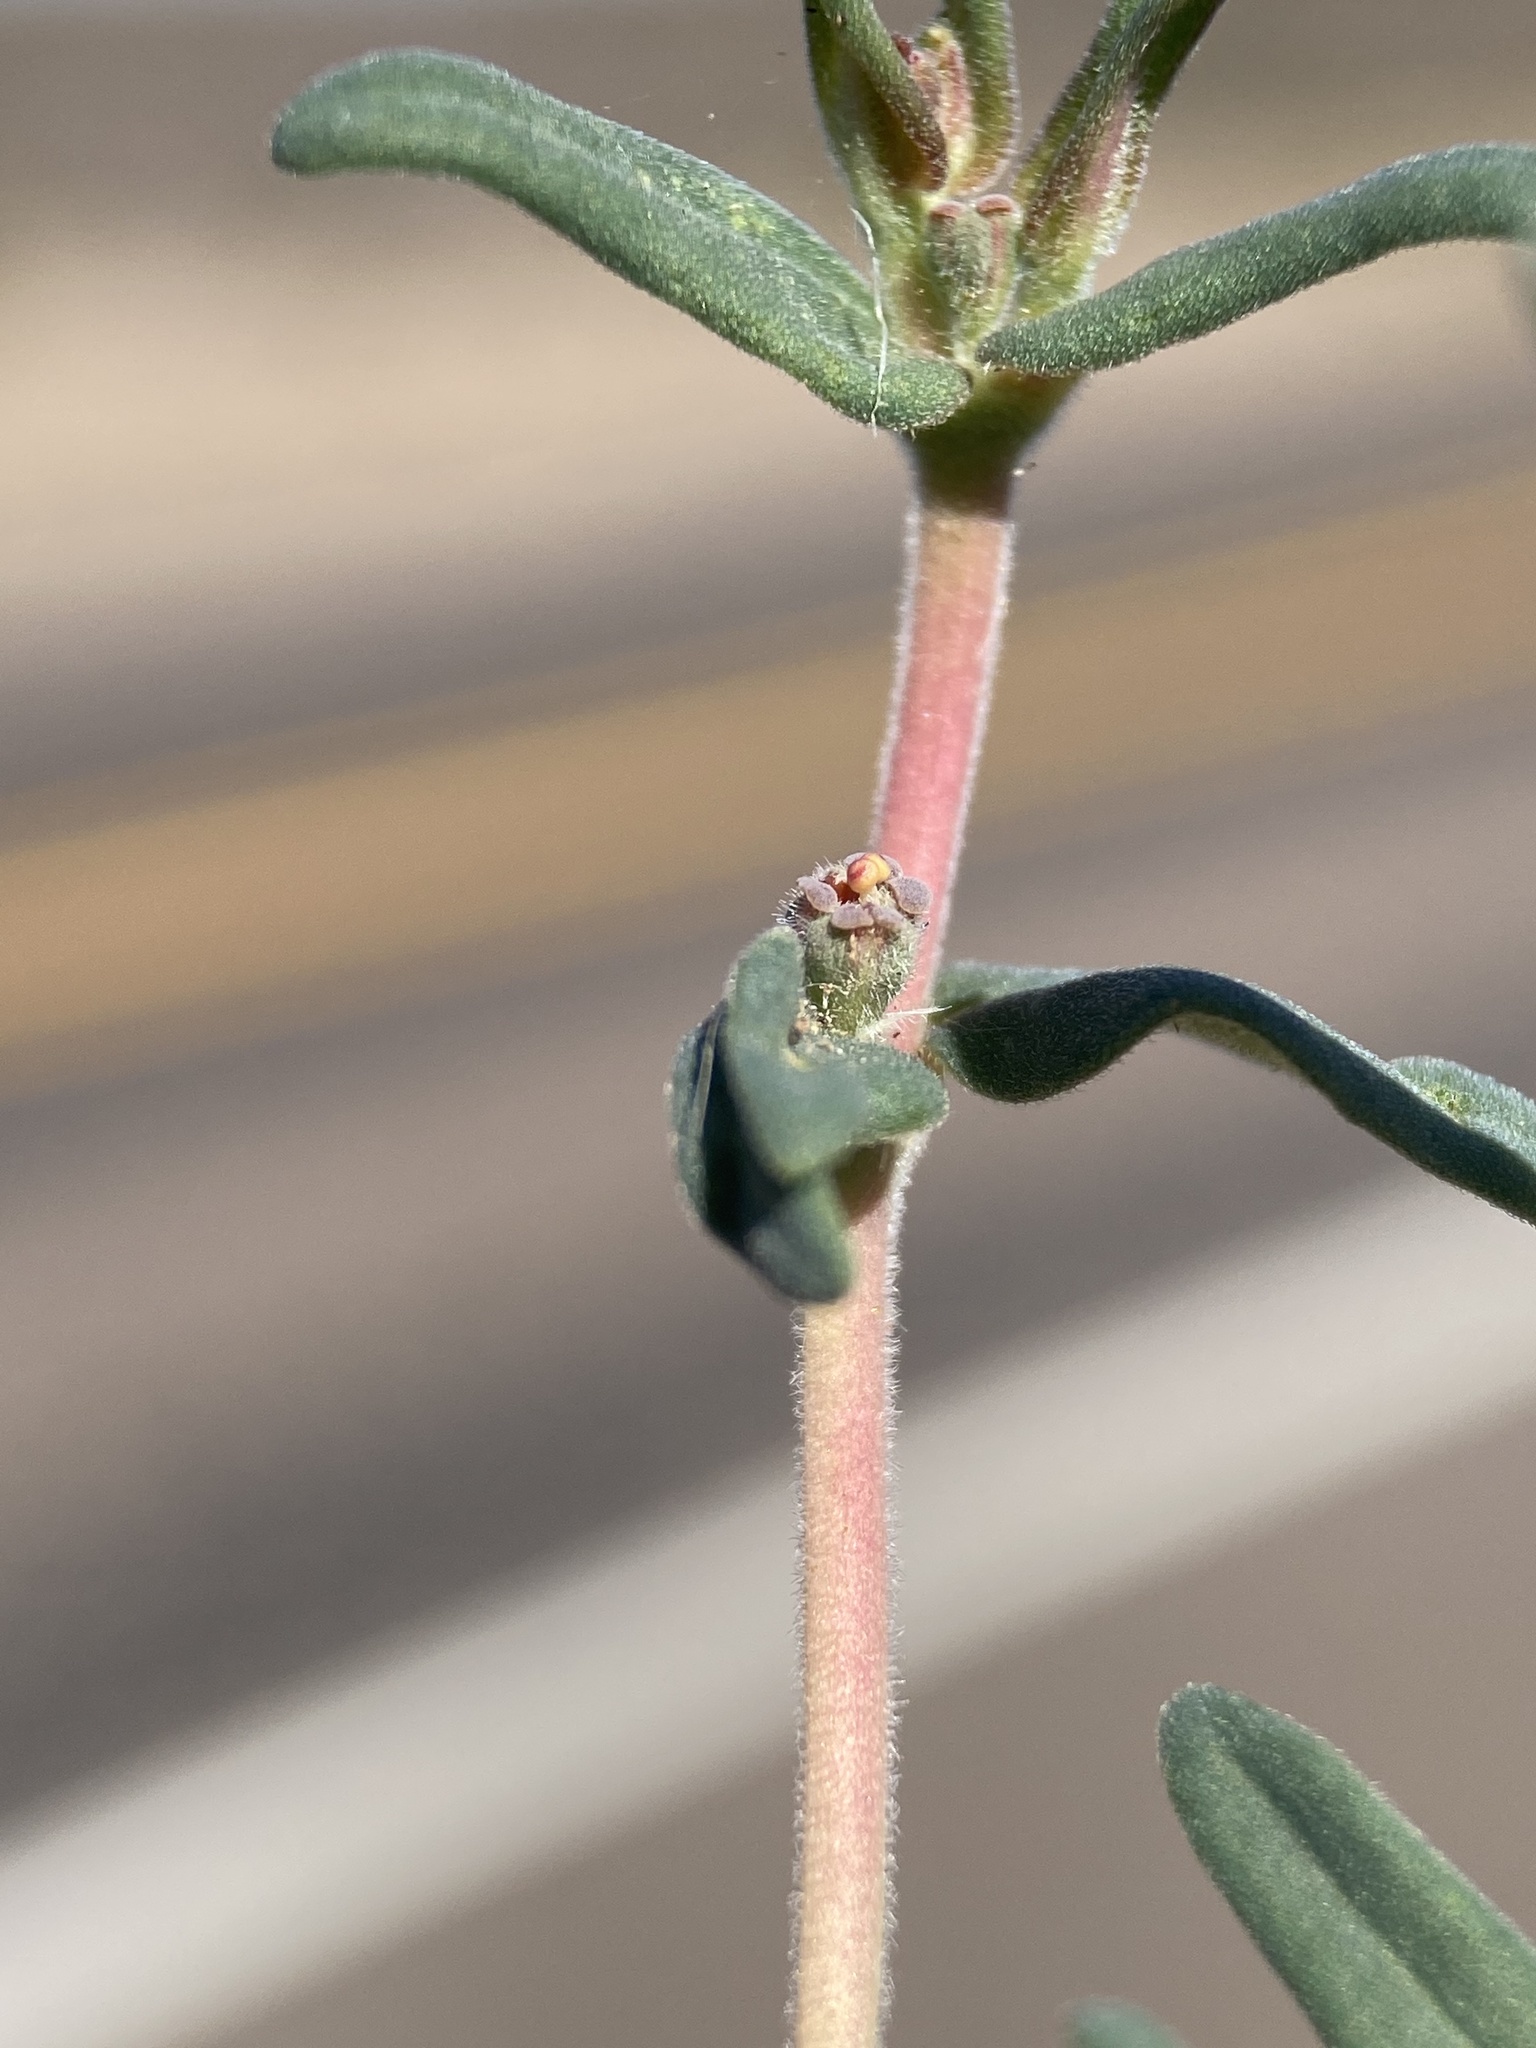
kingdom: Plantae
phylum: Tracheophyta
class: Magnoliopsida
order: Malpighiales
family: Euphorbiaceae
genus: Euphorbia
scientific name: Euphorbia lata
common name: Hoary euphorbia
